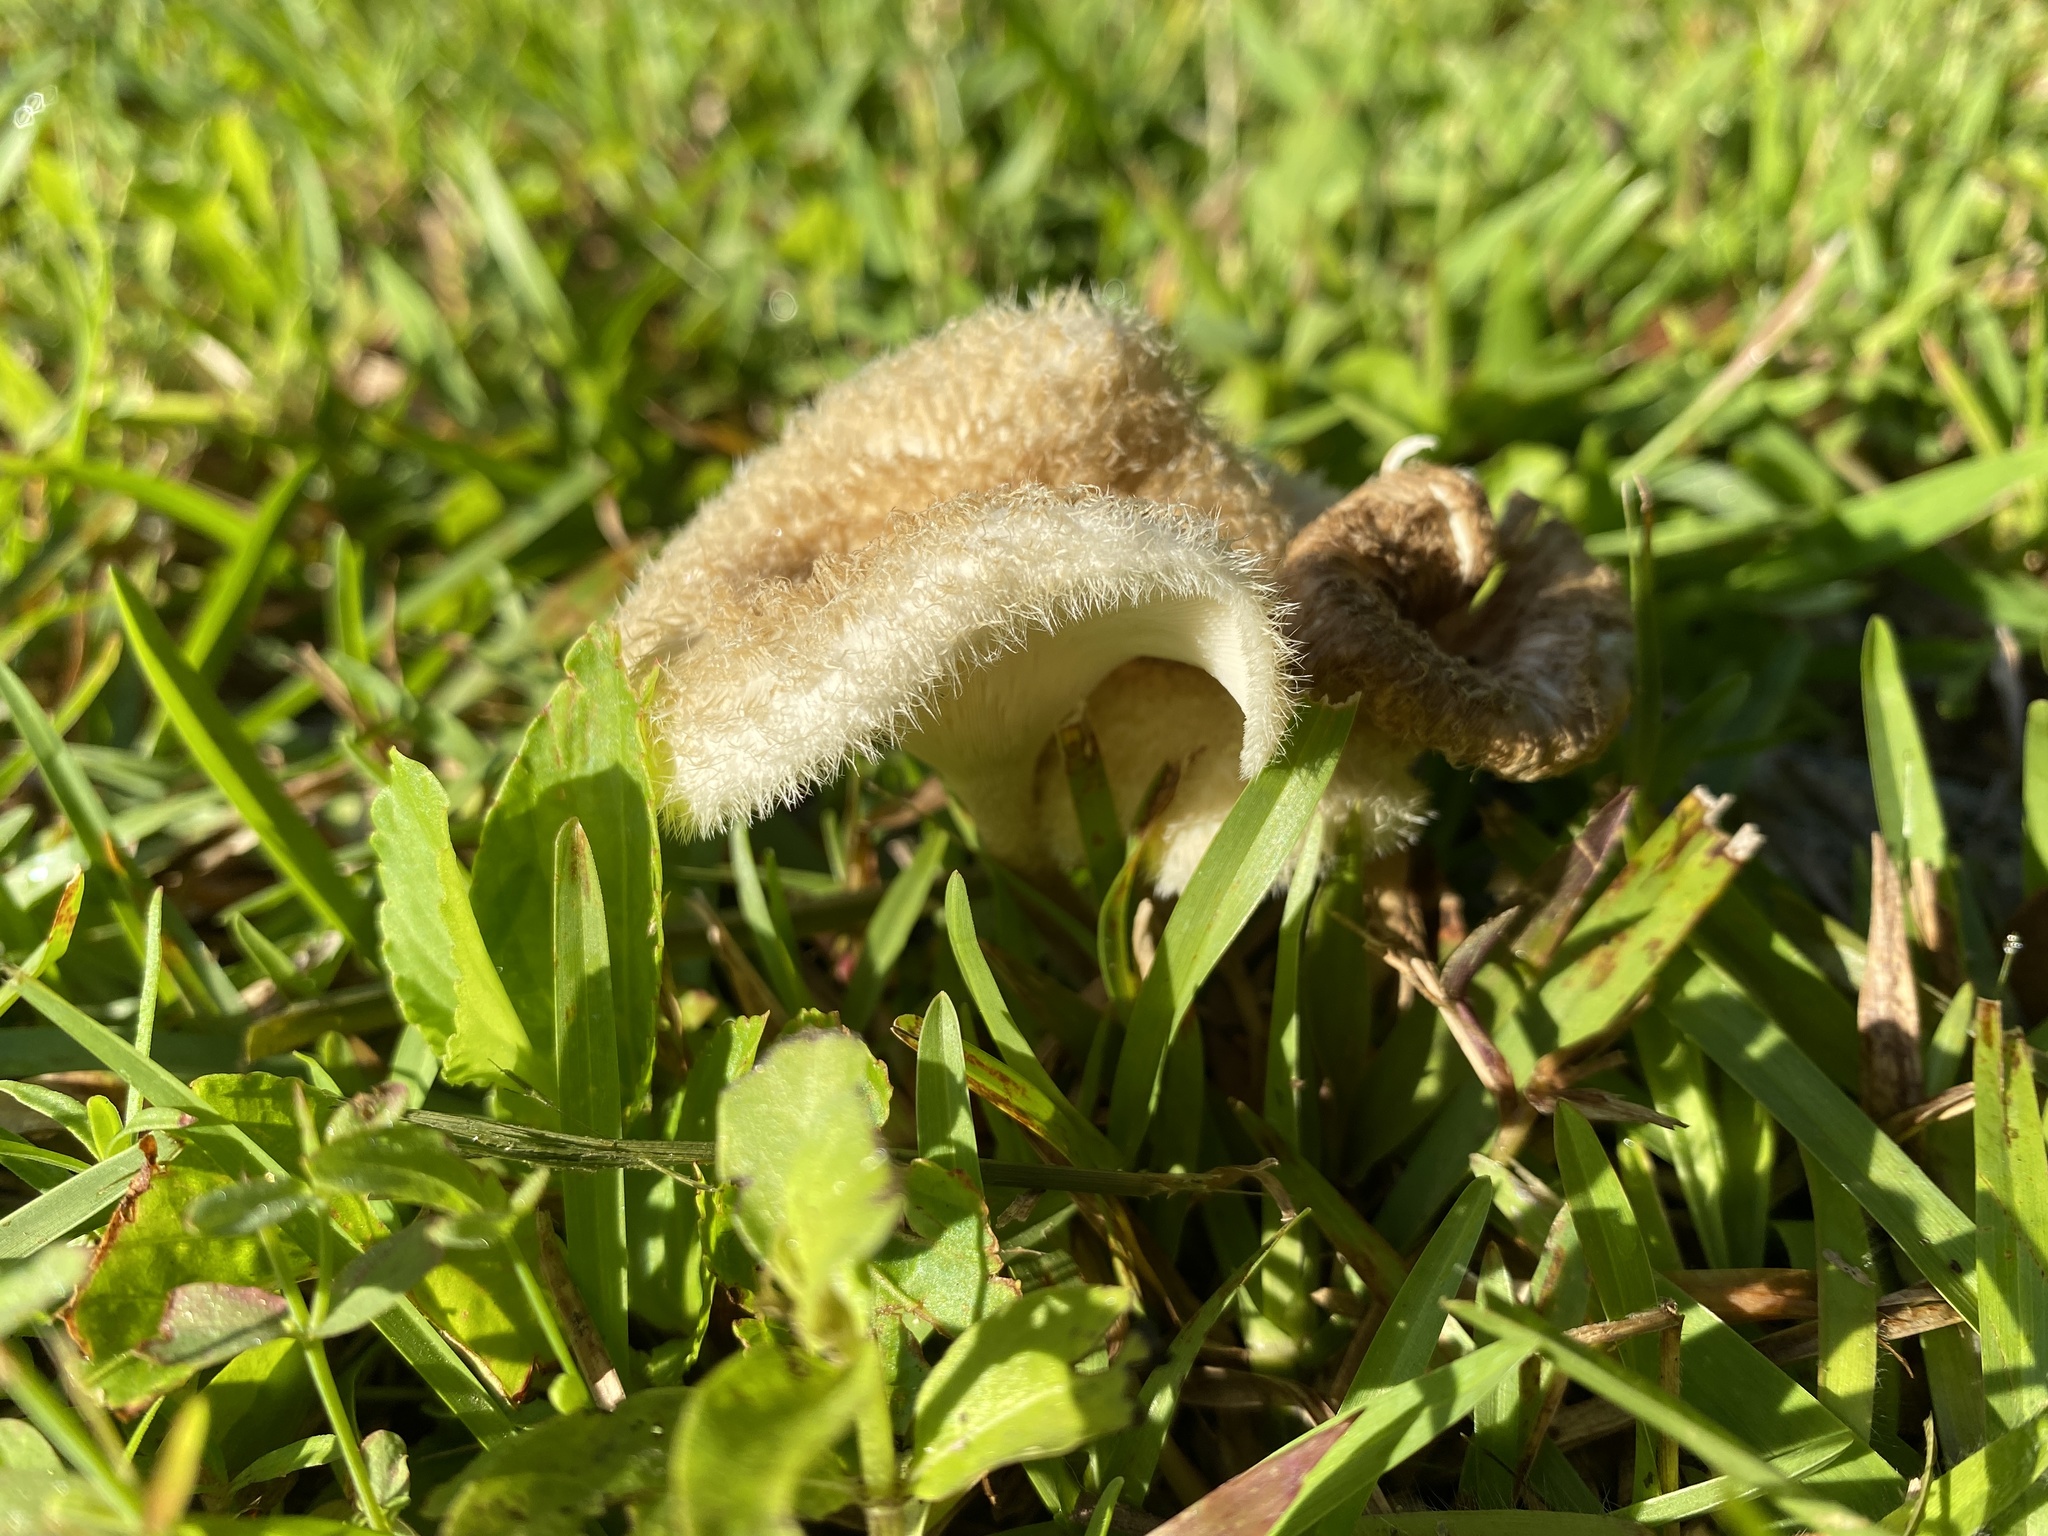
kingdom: Fungi
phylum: Basidiomycota
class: Agaricomycetes
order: Polyporales
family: Polyporaceae
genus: Lentinus
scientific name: Lentinus crinitus
